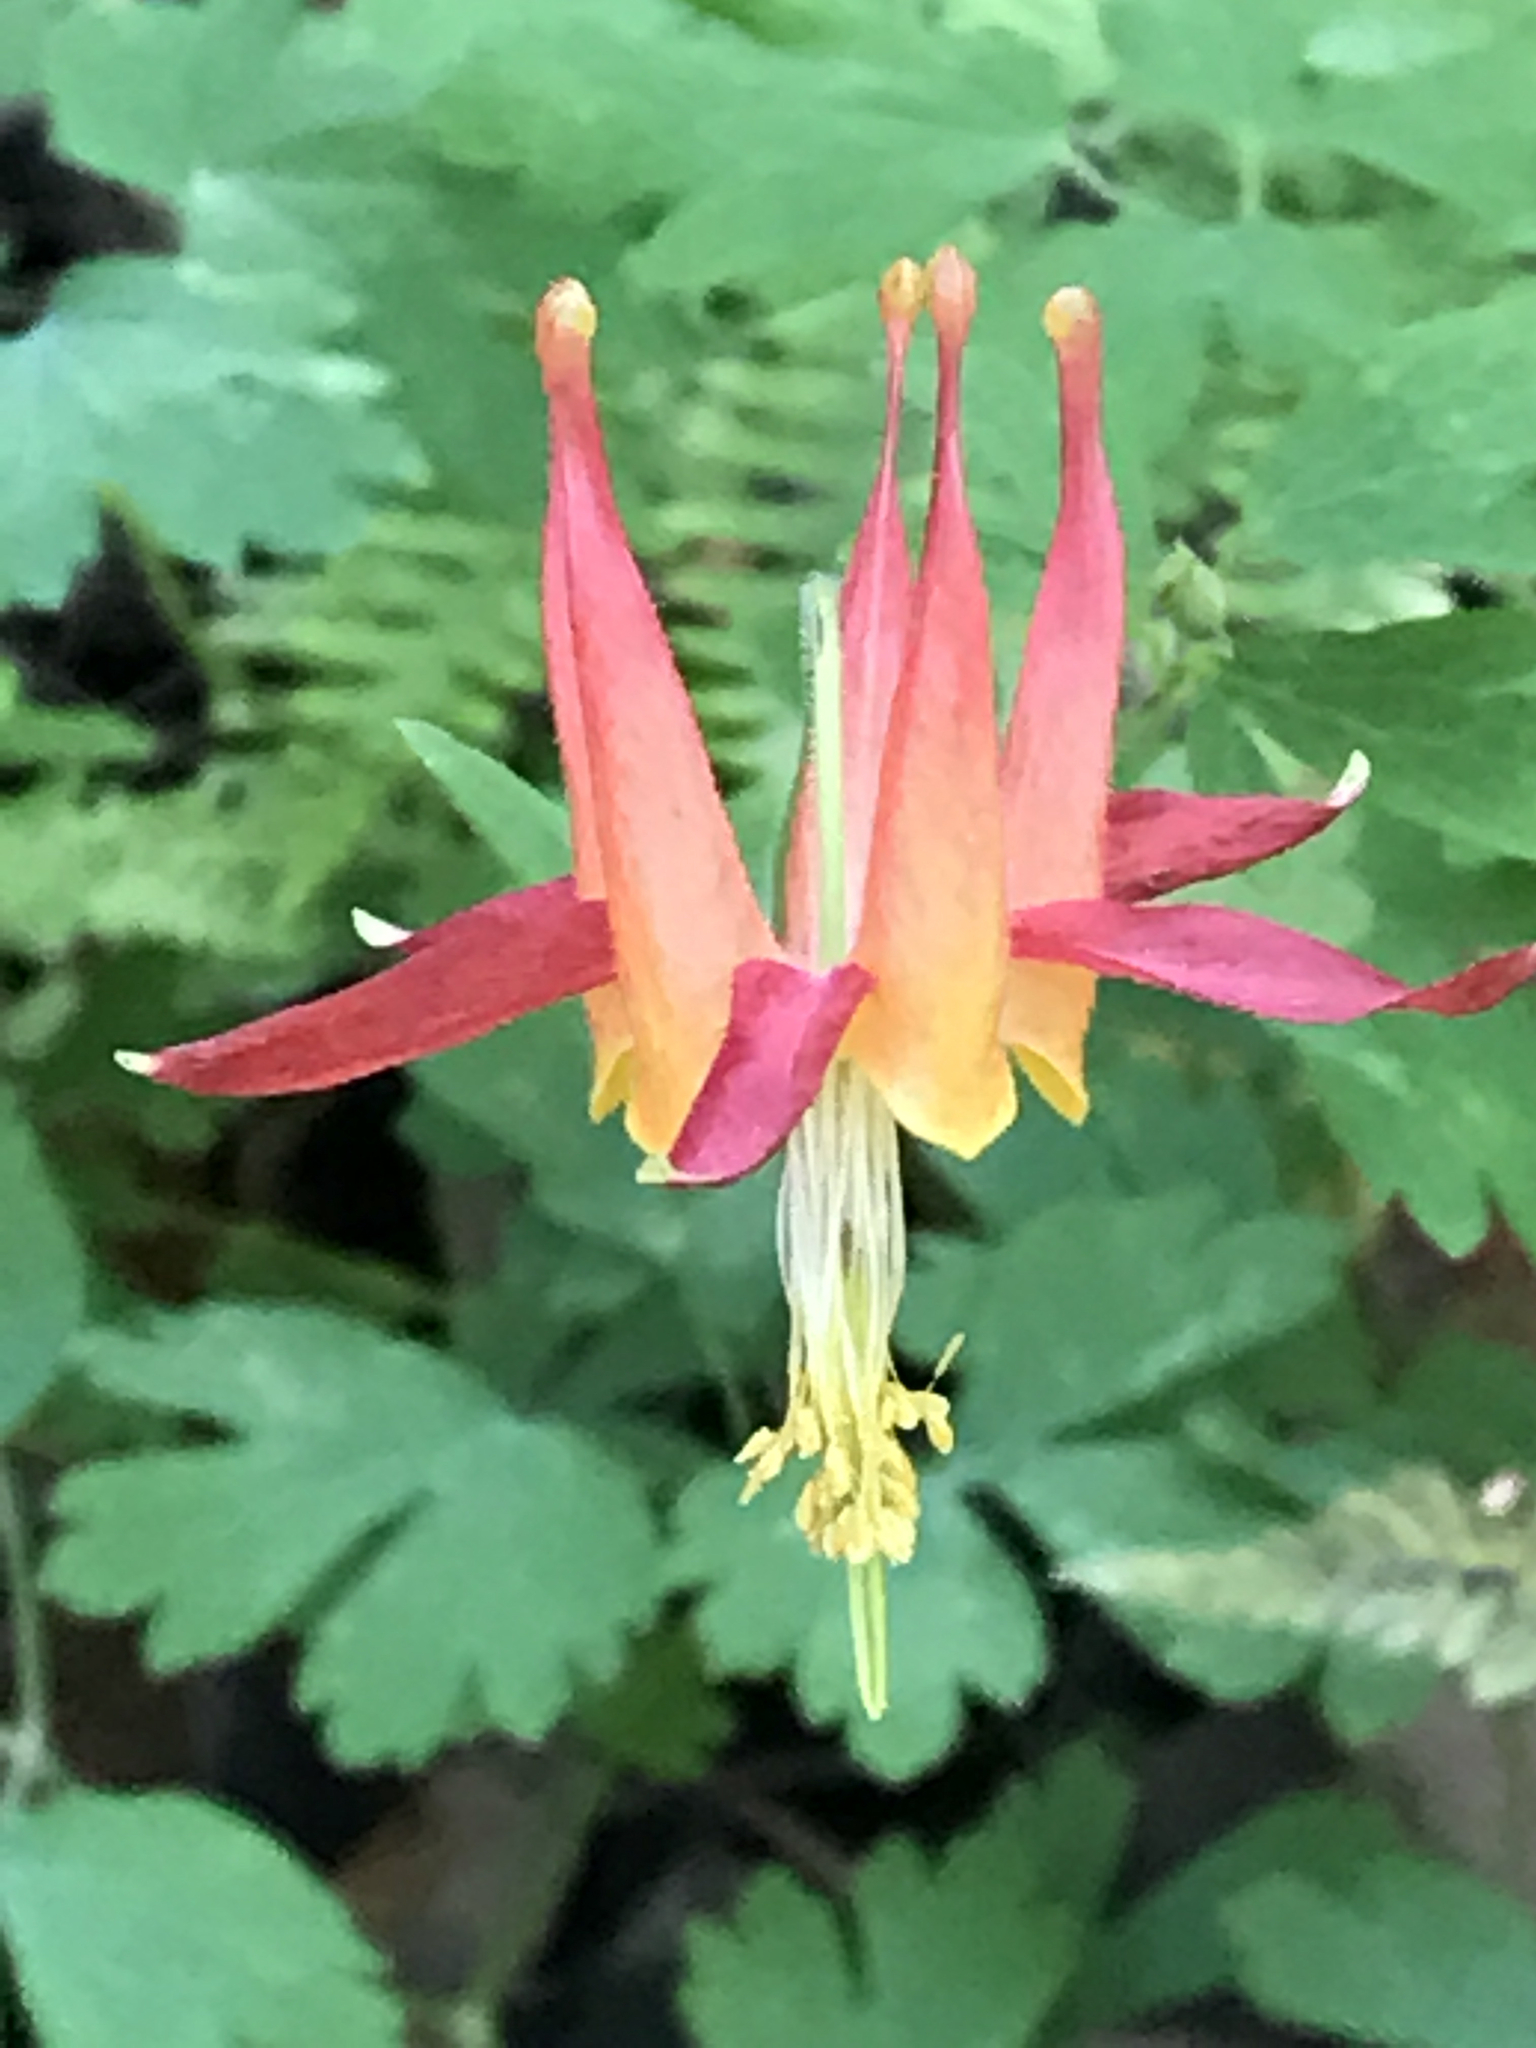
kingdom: Plantae
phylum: Tracheophyta
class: Magnoliopsida
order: Ranunculales
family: Ranunculaceae
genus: Aquilegia
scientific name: Aquilegia formosa
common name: Sitka columbine
